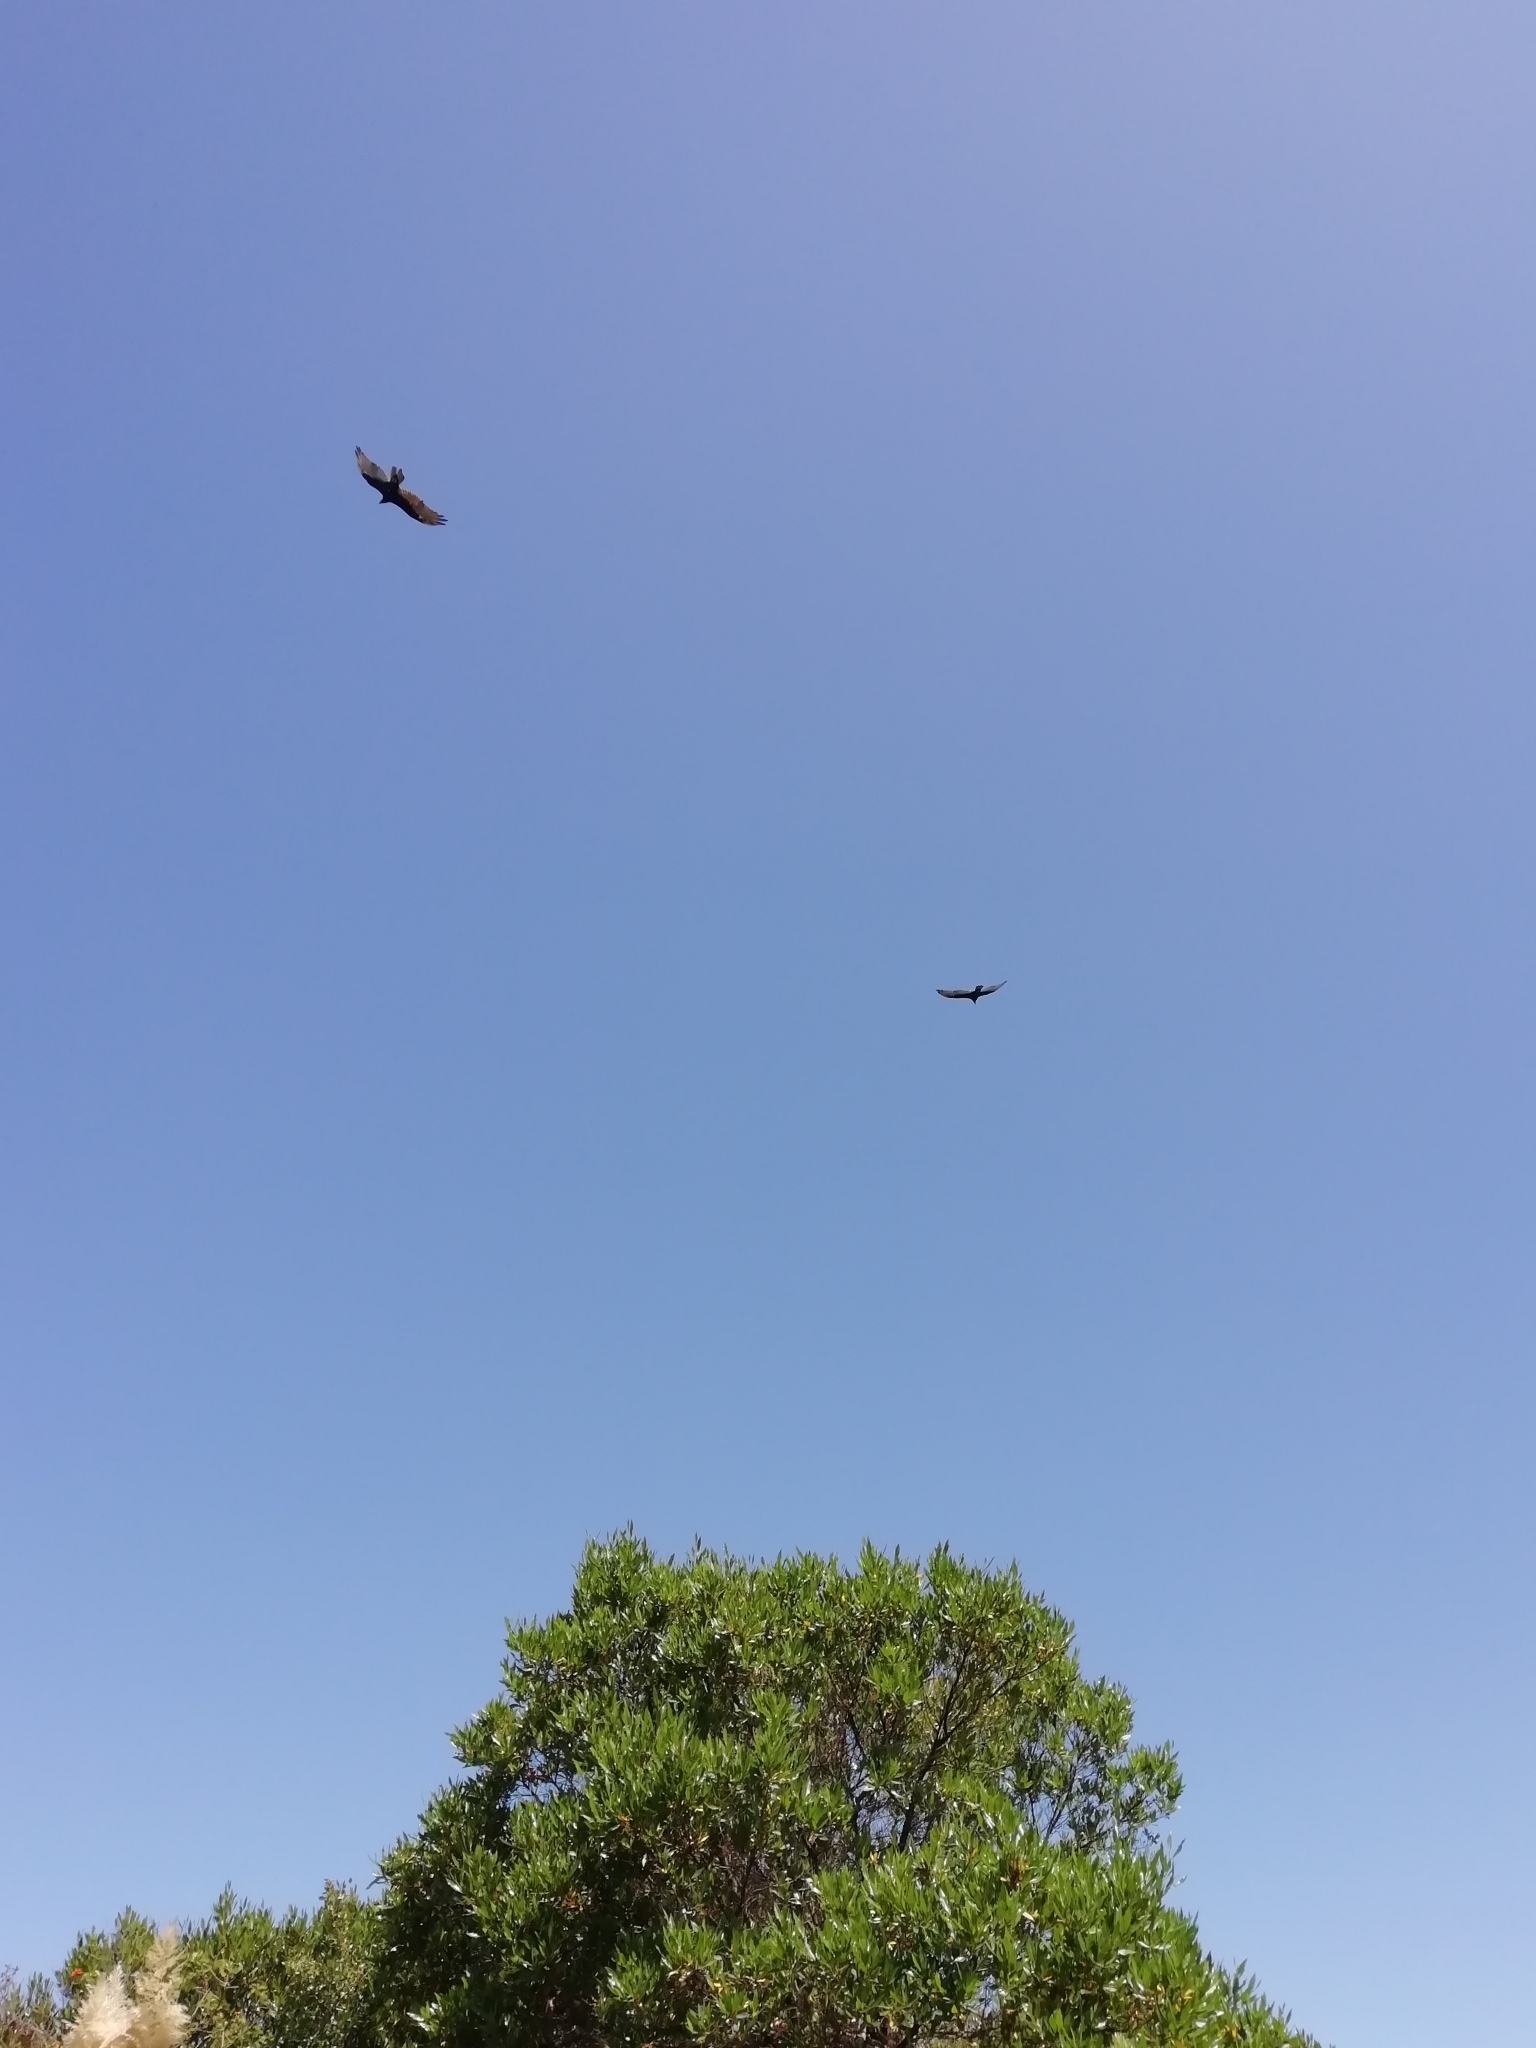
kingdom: Animalia
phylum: Chordata
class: Aves
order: Accipitriformes
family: Cathartidae
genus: Cathartes
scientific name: Cathartes aura
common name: Turkey vulture
